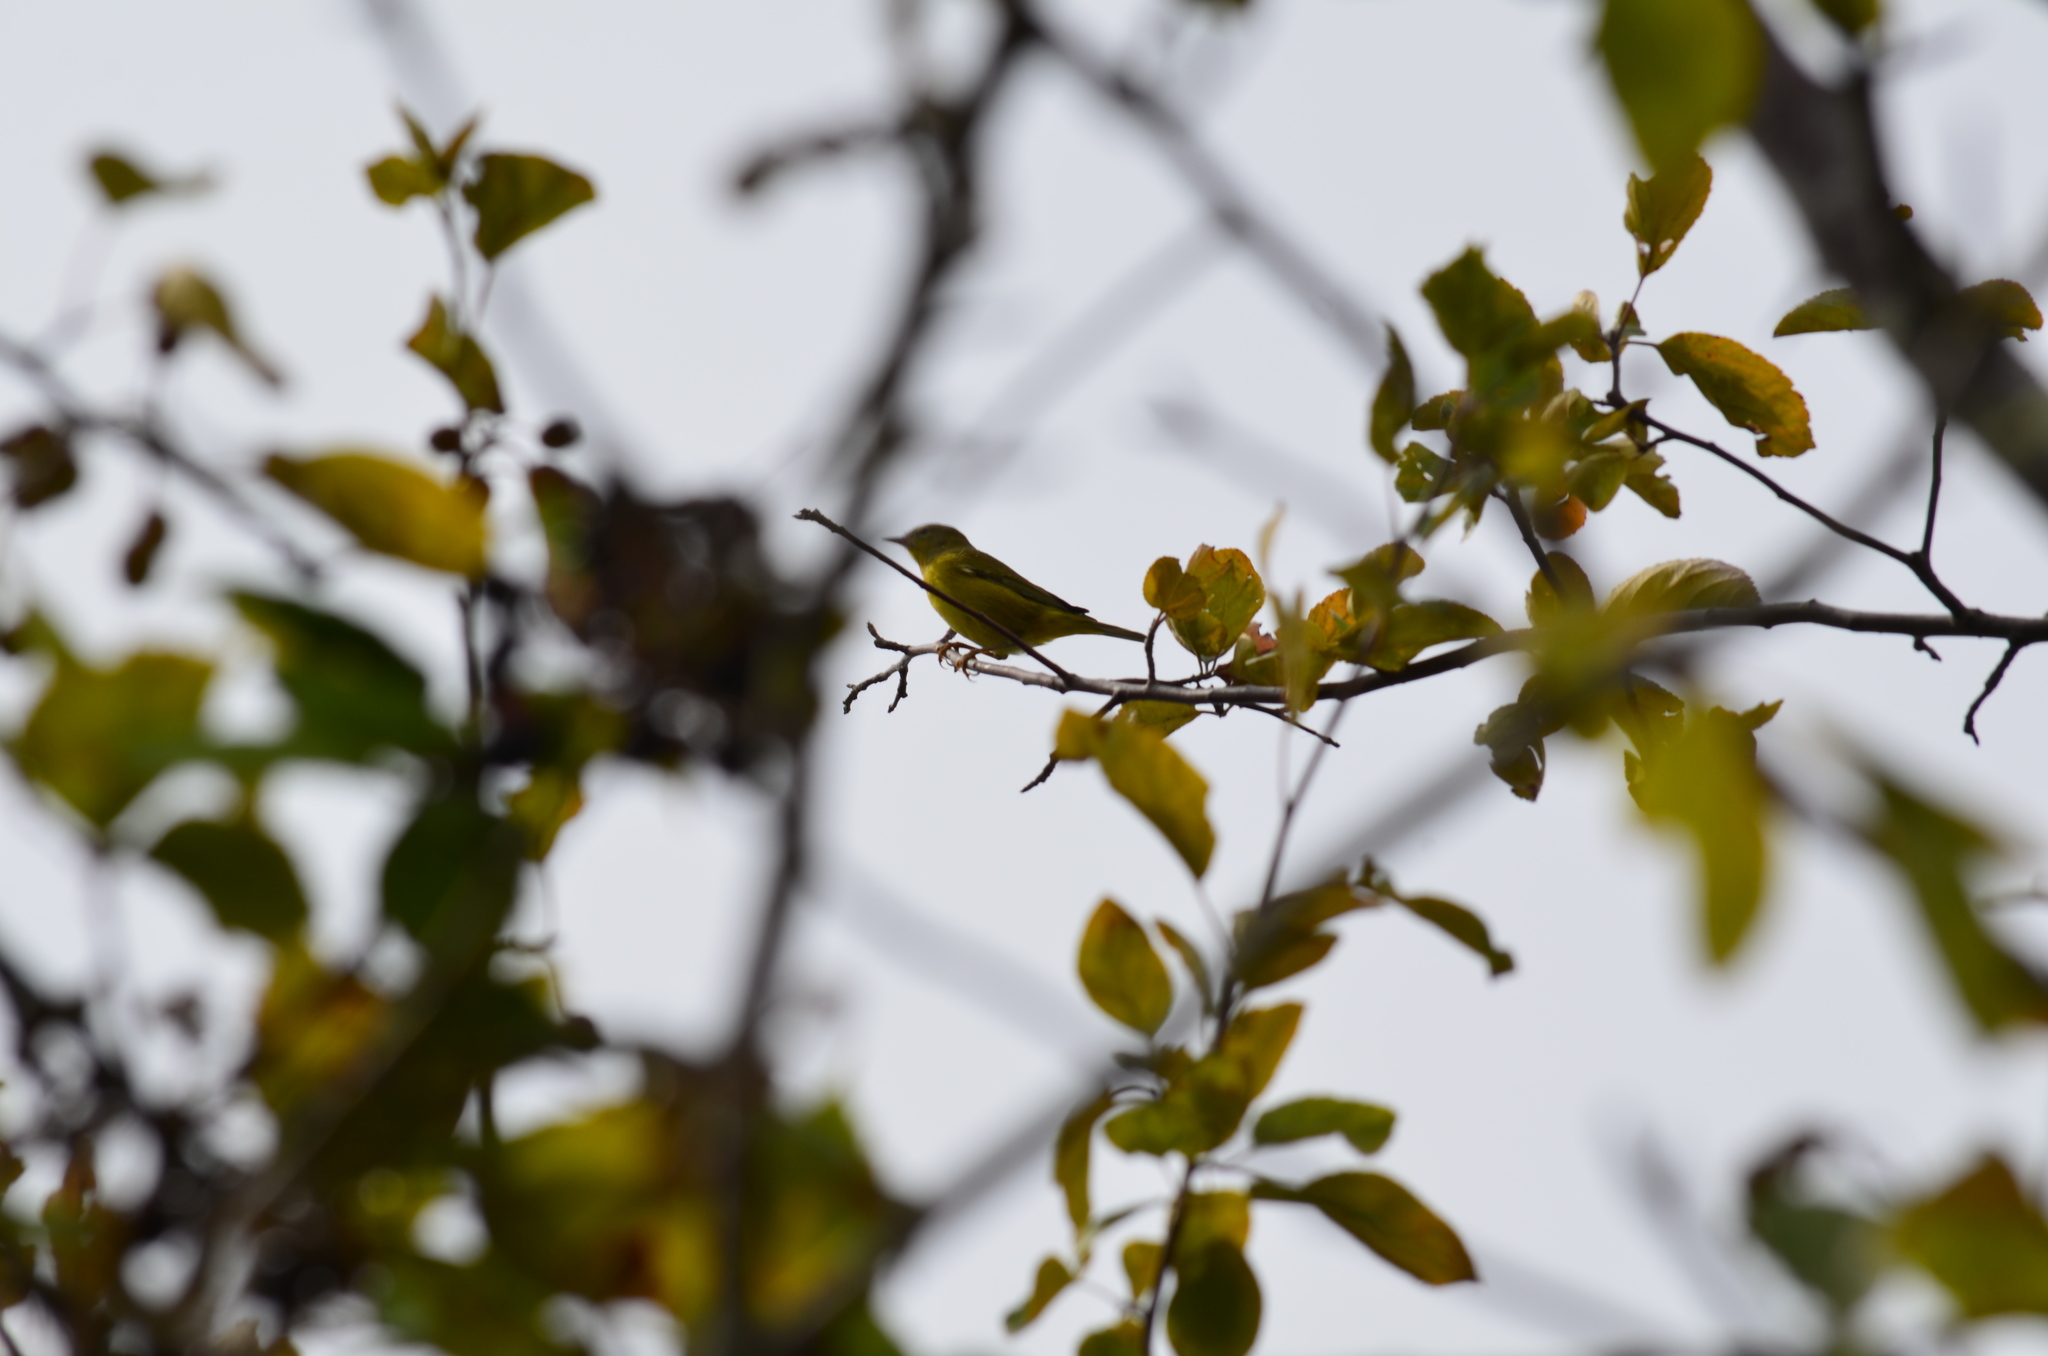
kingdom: Animalia
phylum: Chordata
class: Aves
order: Passeriformes
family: Parulidae
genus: Leiothlypis
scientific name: Leiothlypis celata
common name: Orange-crowned warbler
